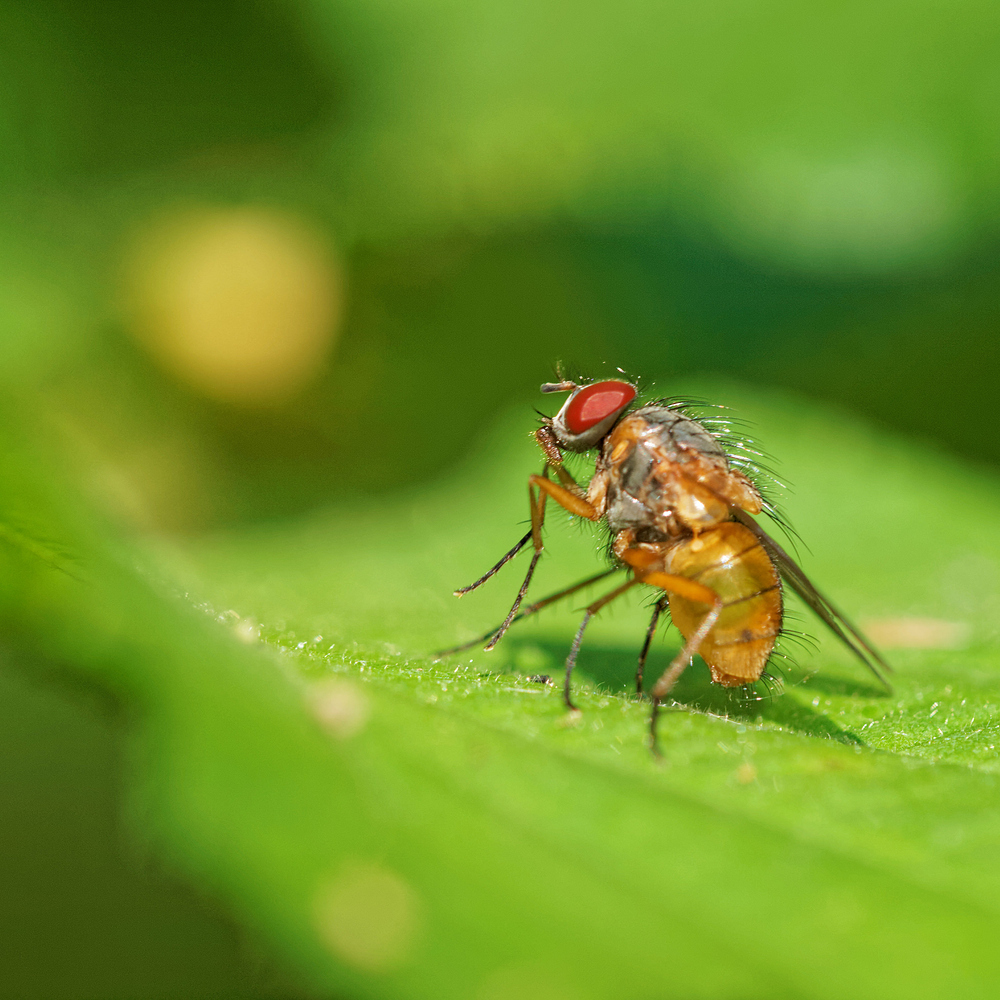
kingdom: Animalia
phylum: Arthropoda
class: Insecta
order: Diptera
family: Muscidae
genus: Phaonia
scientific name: Phaonia rufiventris
